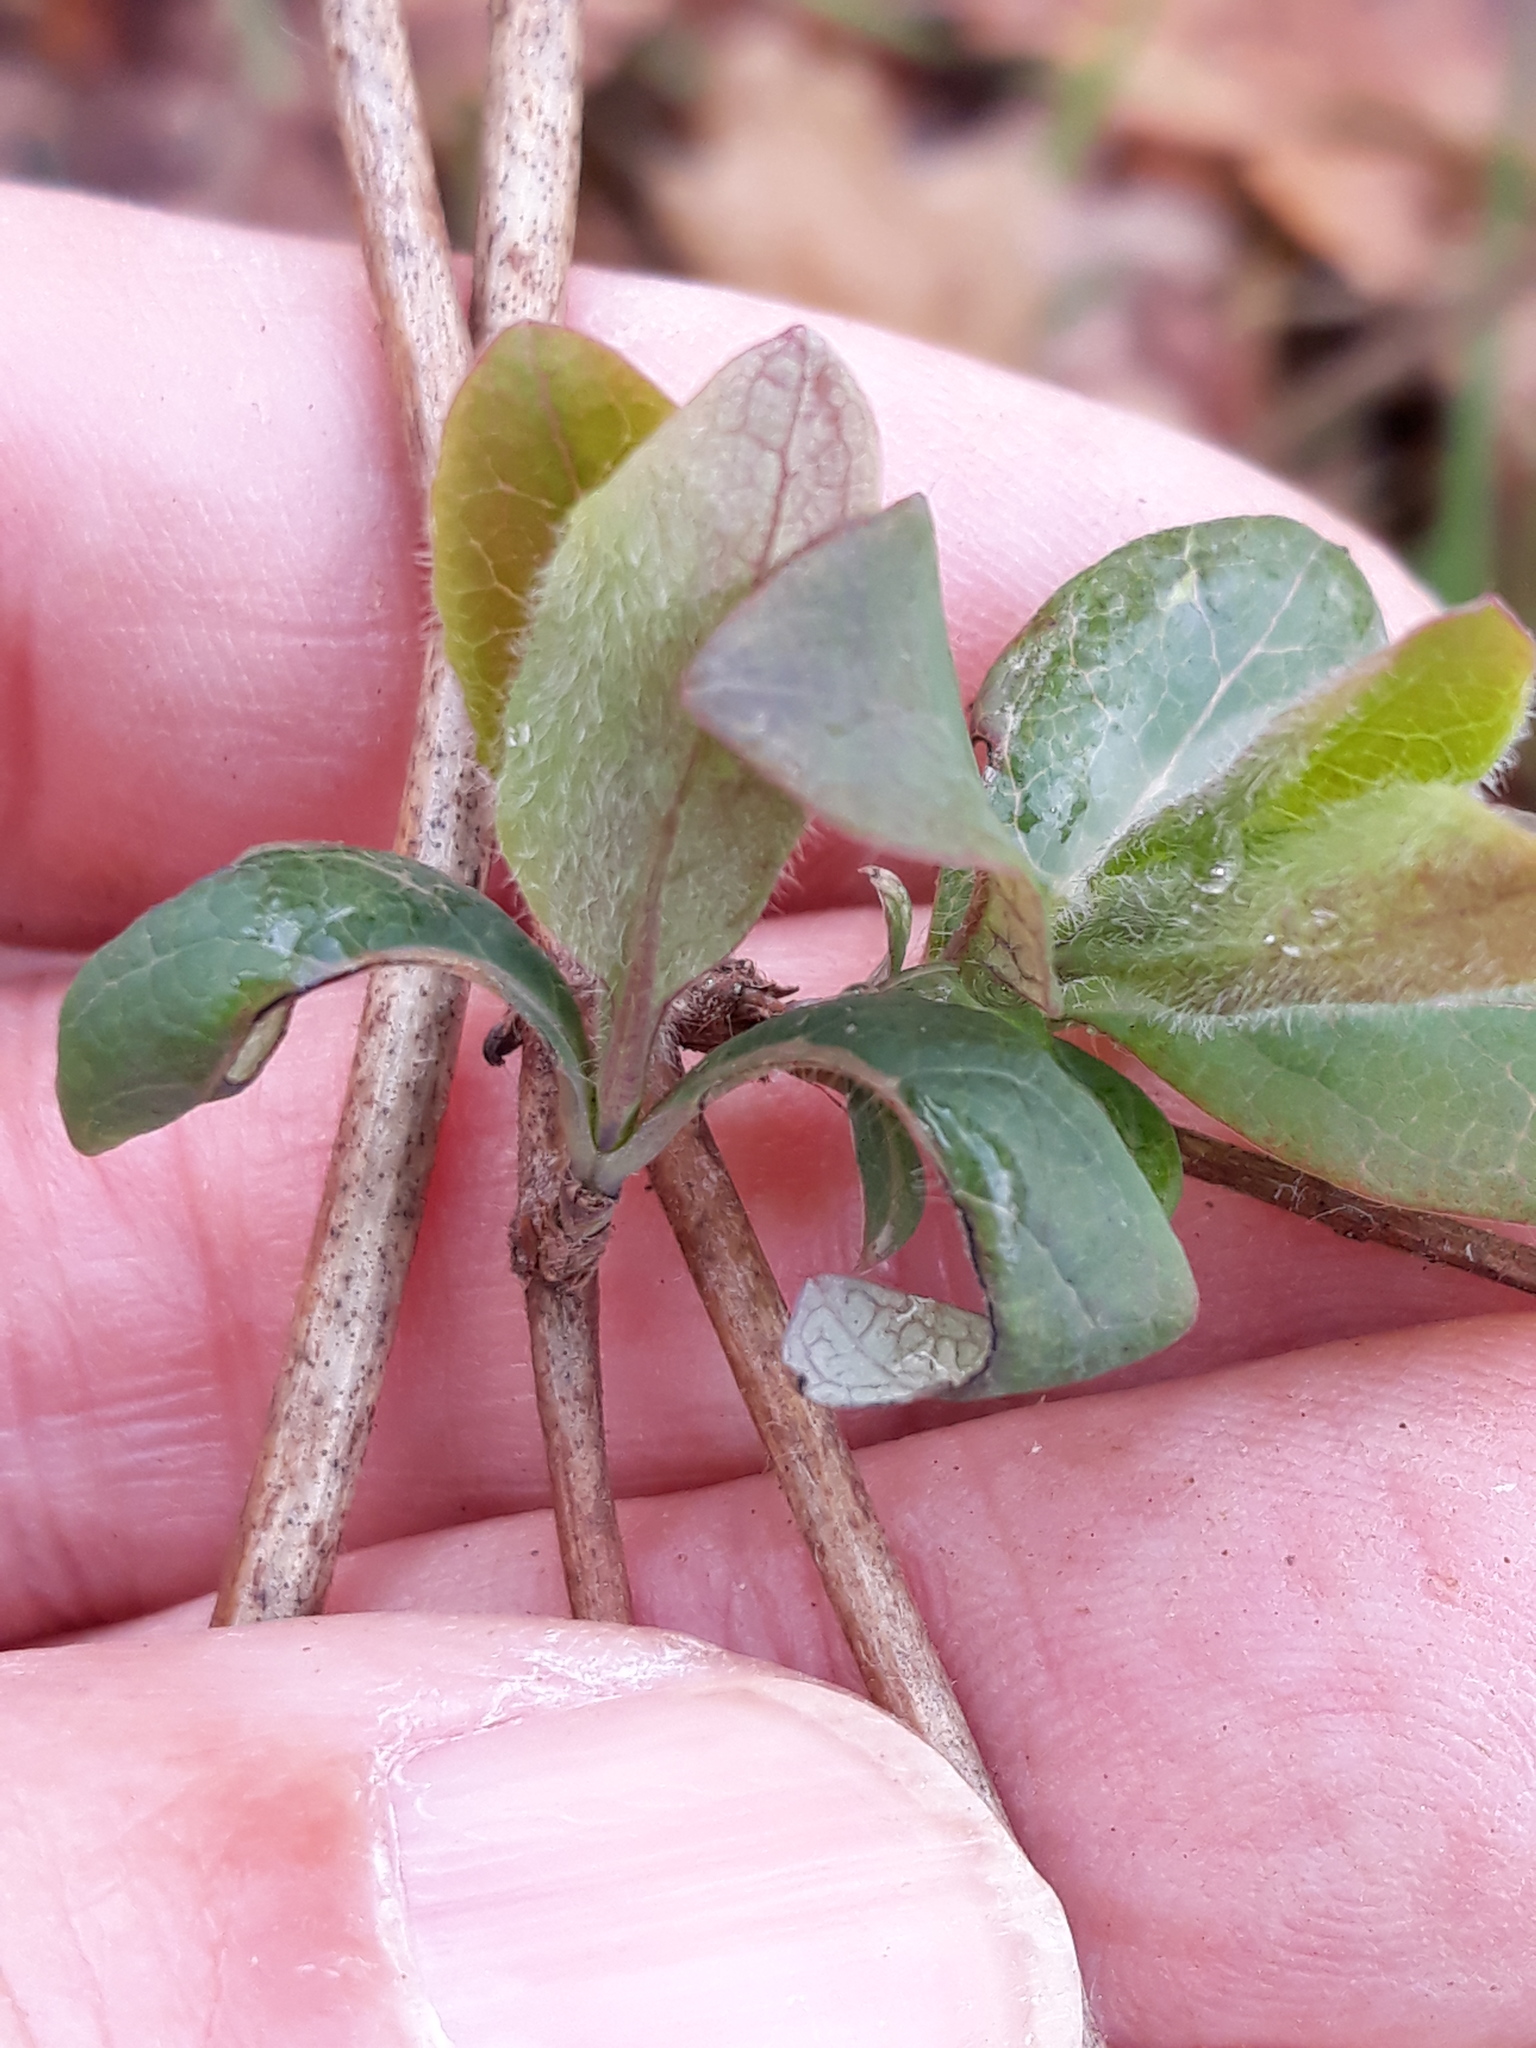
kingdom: Plantae
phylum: Tracheophyta
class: Magnoliopsida
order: Dipsacales
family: Caprifoliaceae
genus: Lonicera
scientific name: Lonicera periclymenum
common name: European honeysuckle
